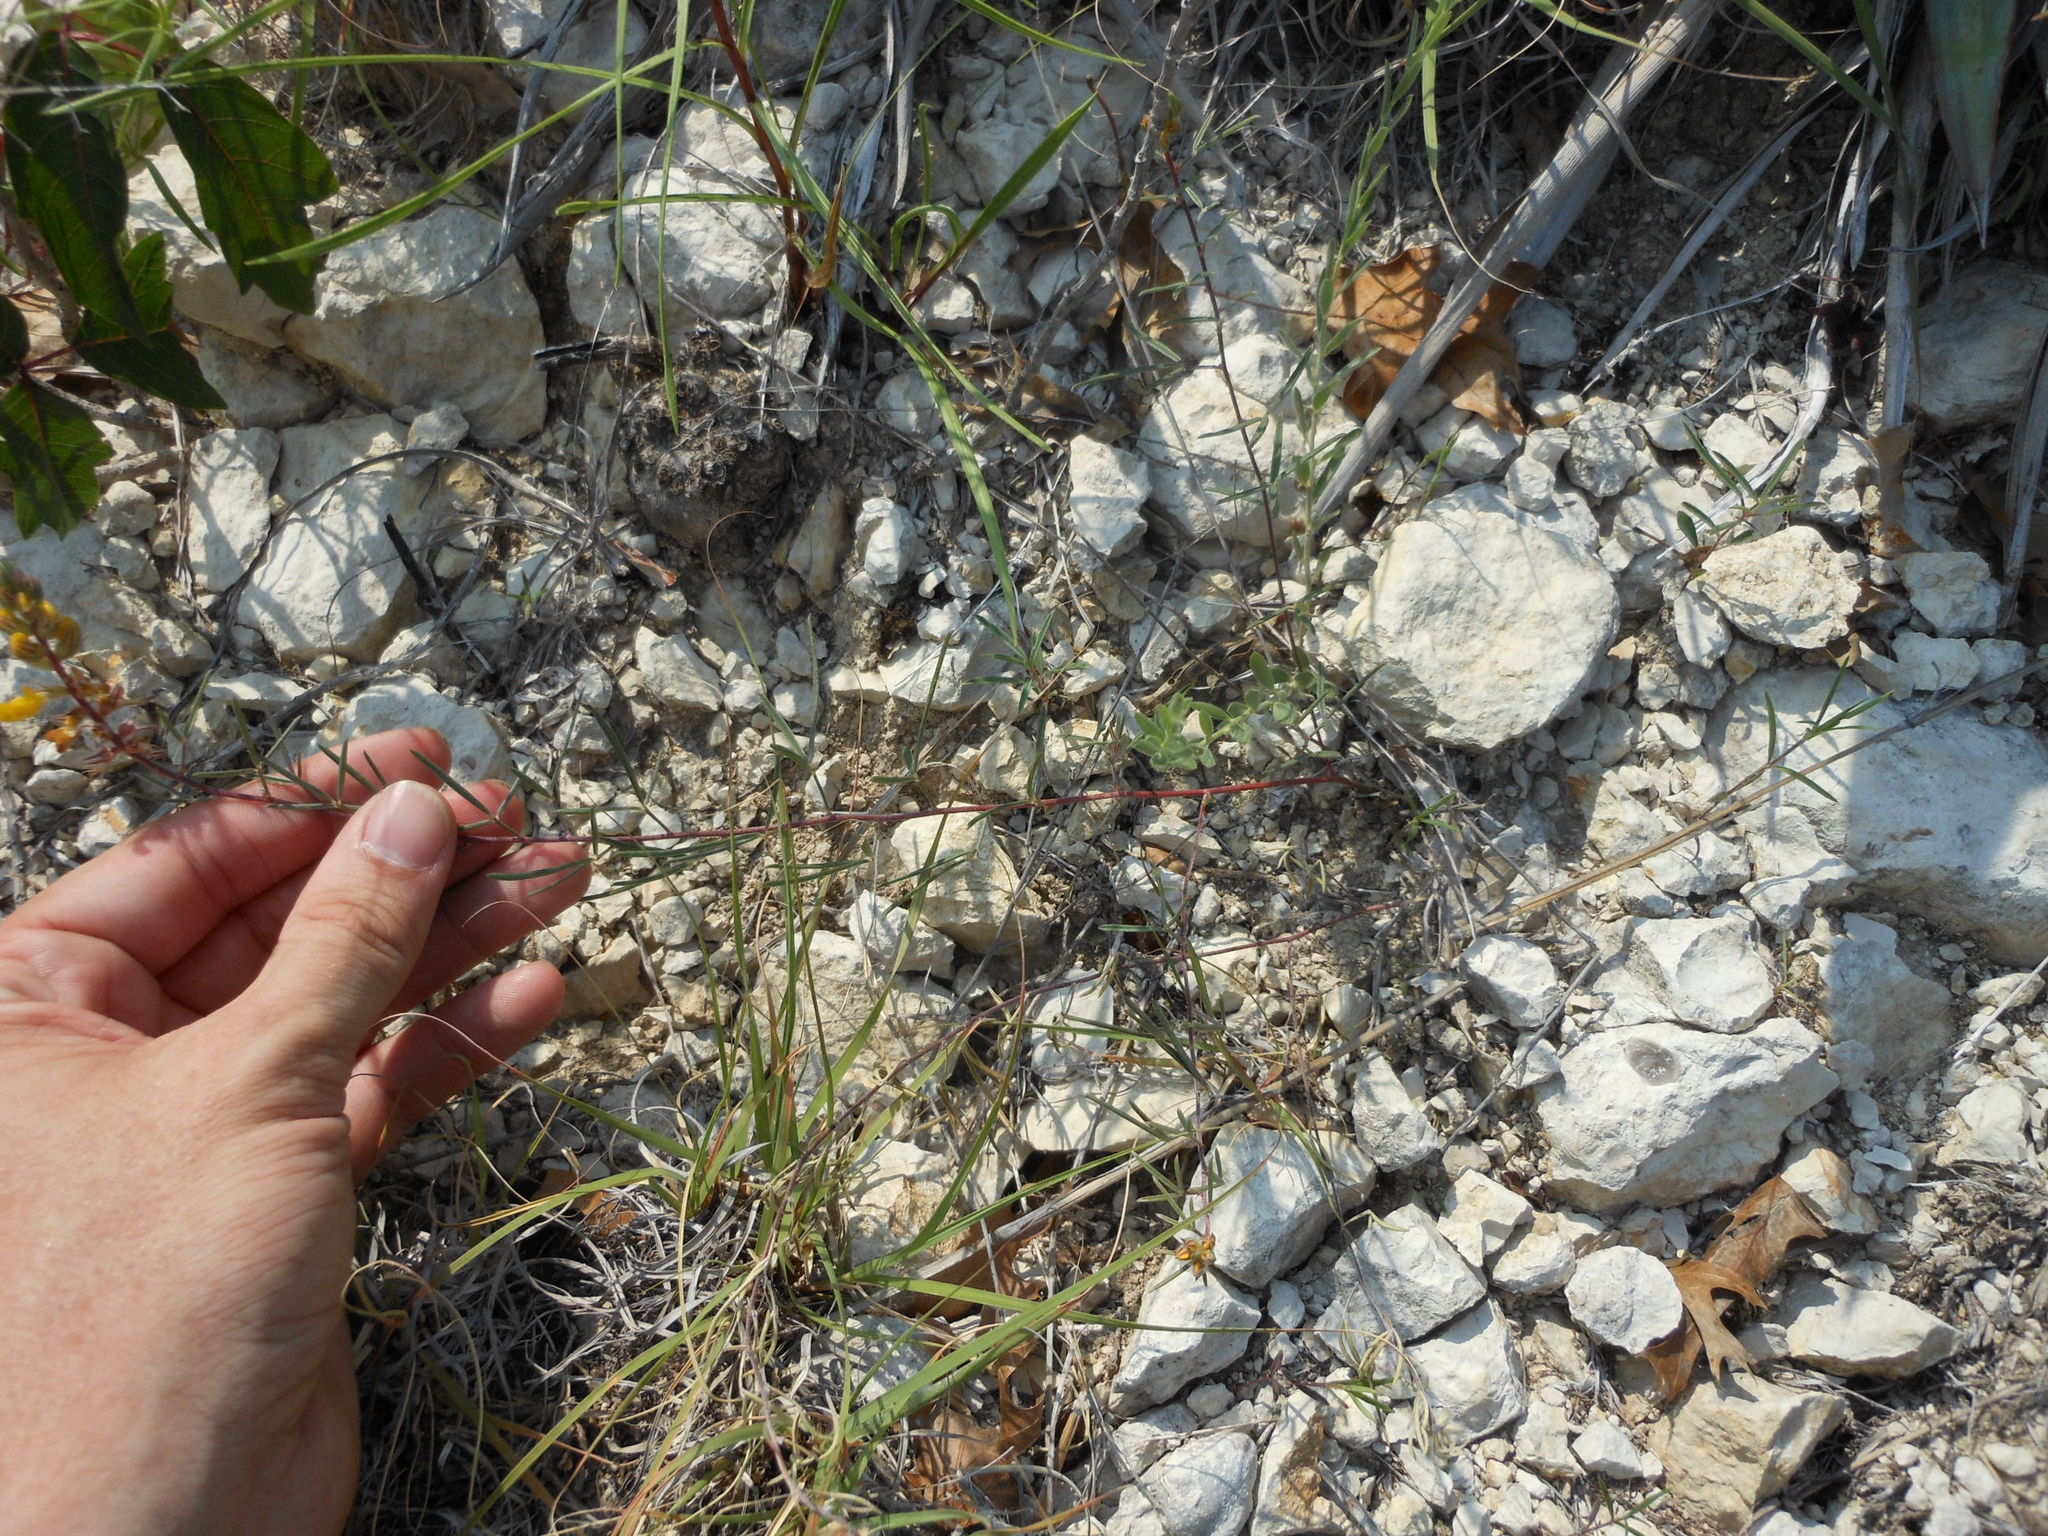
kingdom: Plantae
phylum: Tracheophyta
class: Magnoliopsida
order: Fabales
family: Fabaceae
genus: Dalea
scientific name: Dalea hallii
